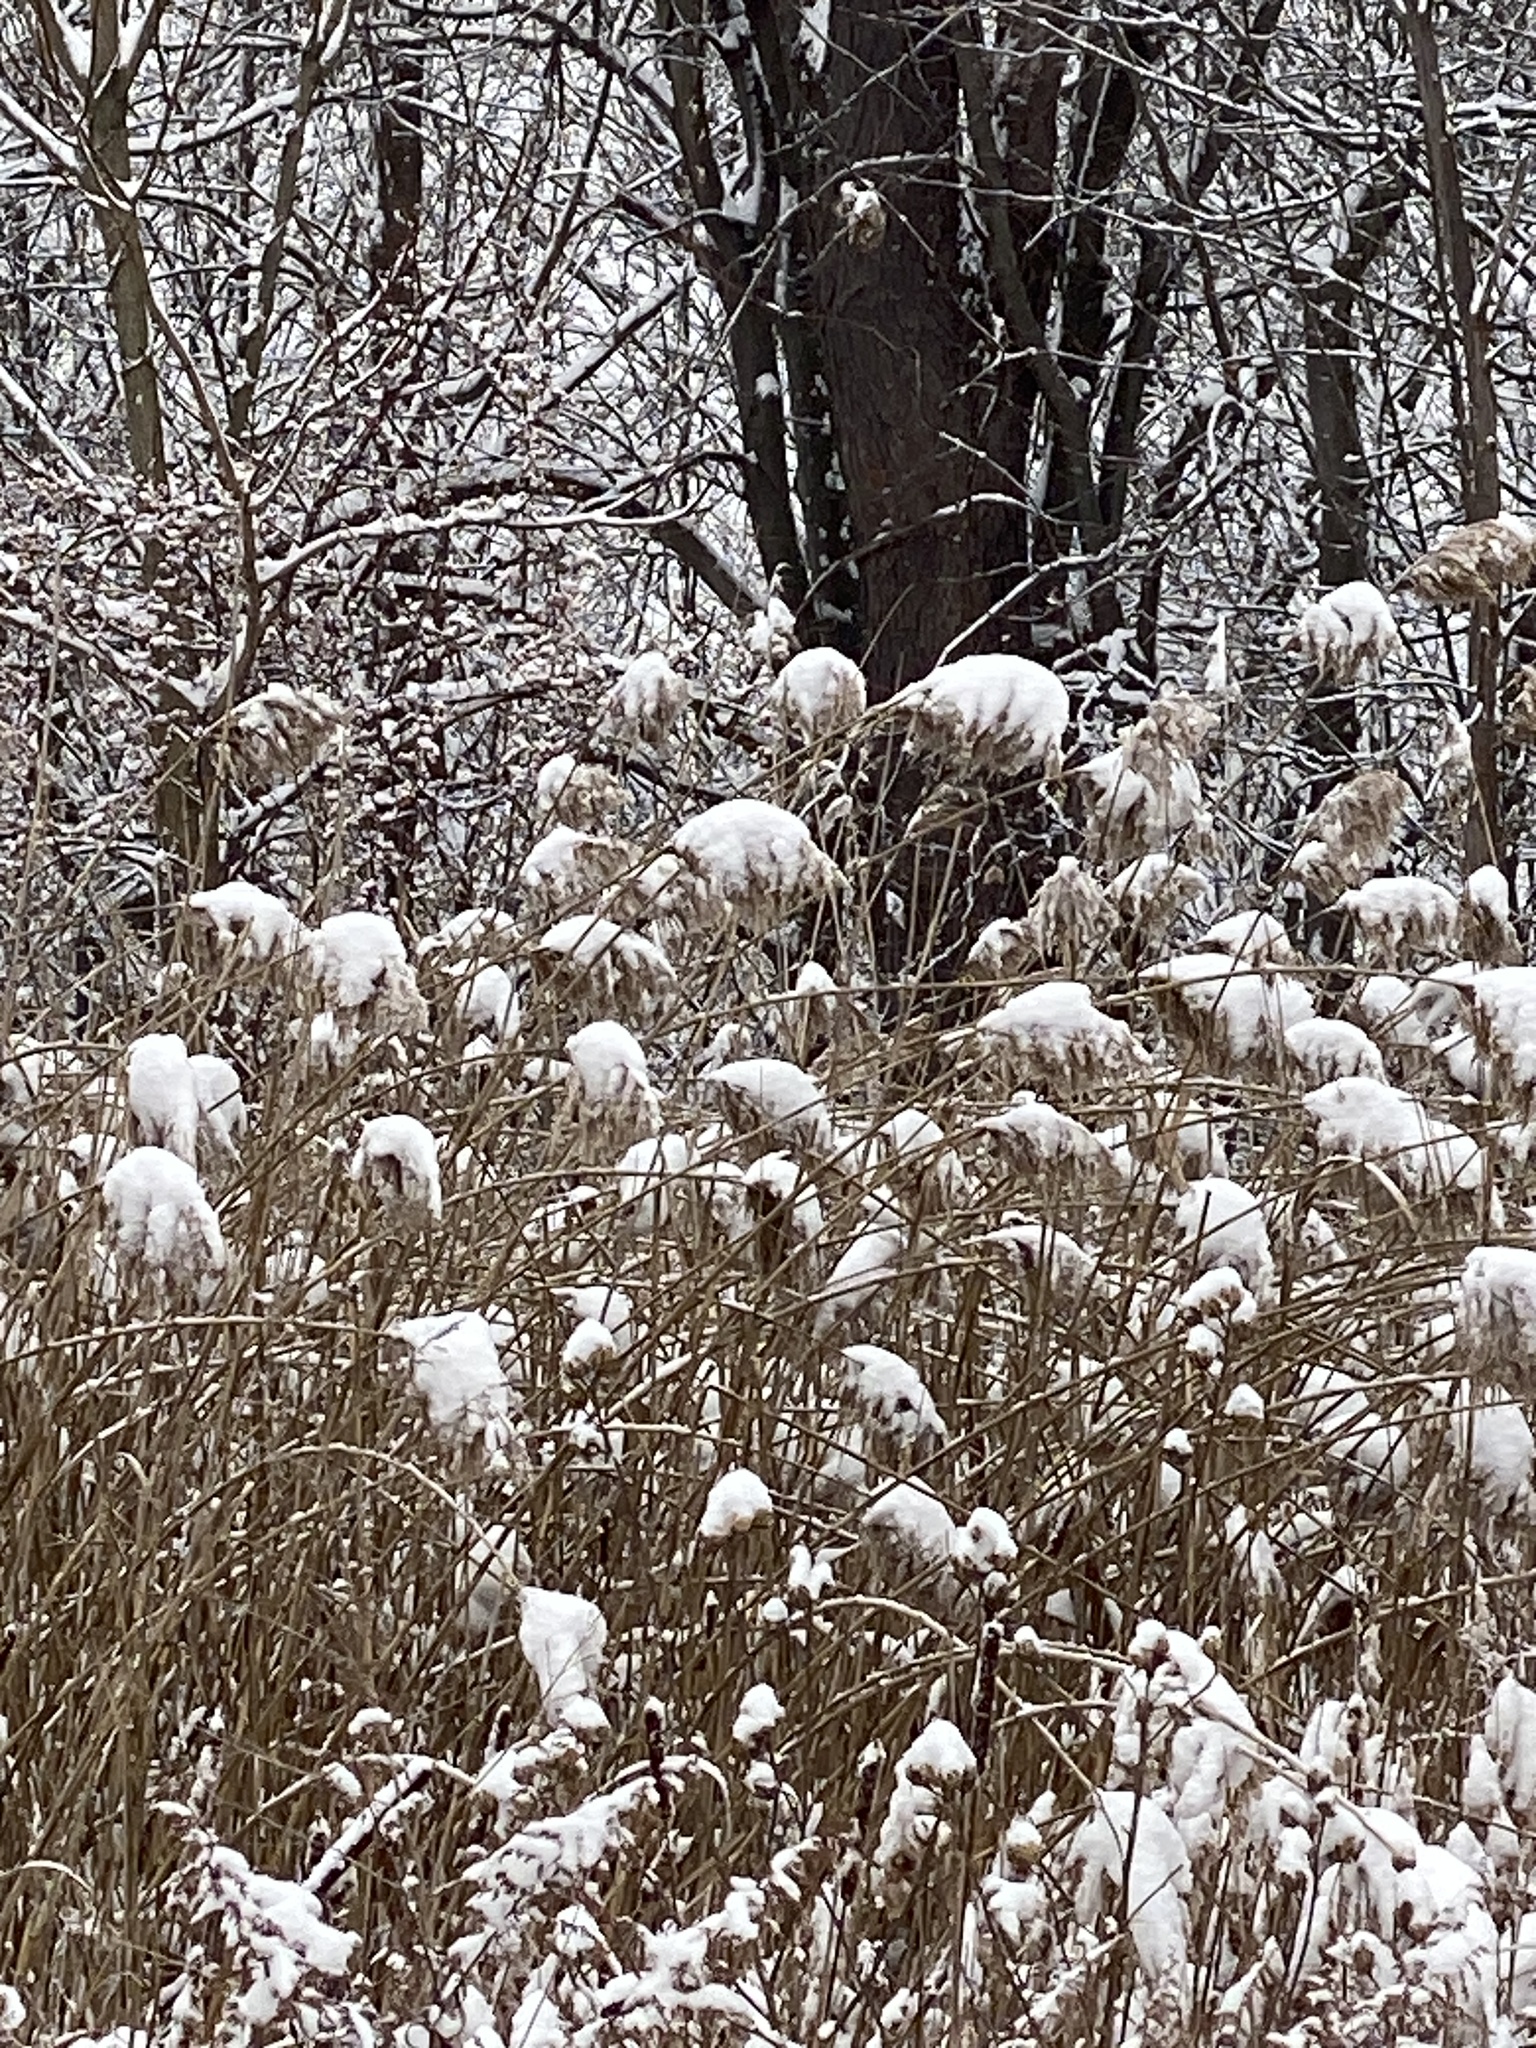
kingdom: Plantae
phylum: Tracheophyta
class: Liliopsida
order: Poales
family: Poaceae
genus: Phragmites
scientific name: Phragmites australis
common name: Common reed
